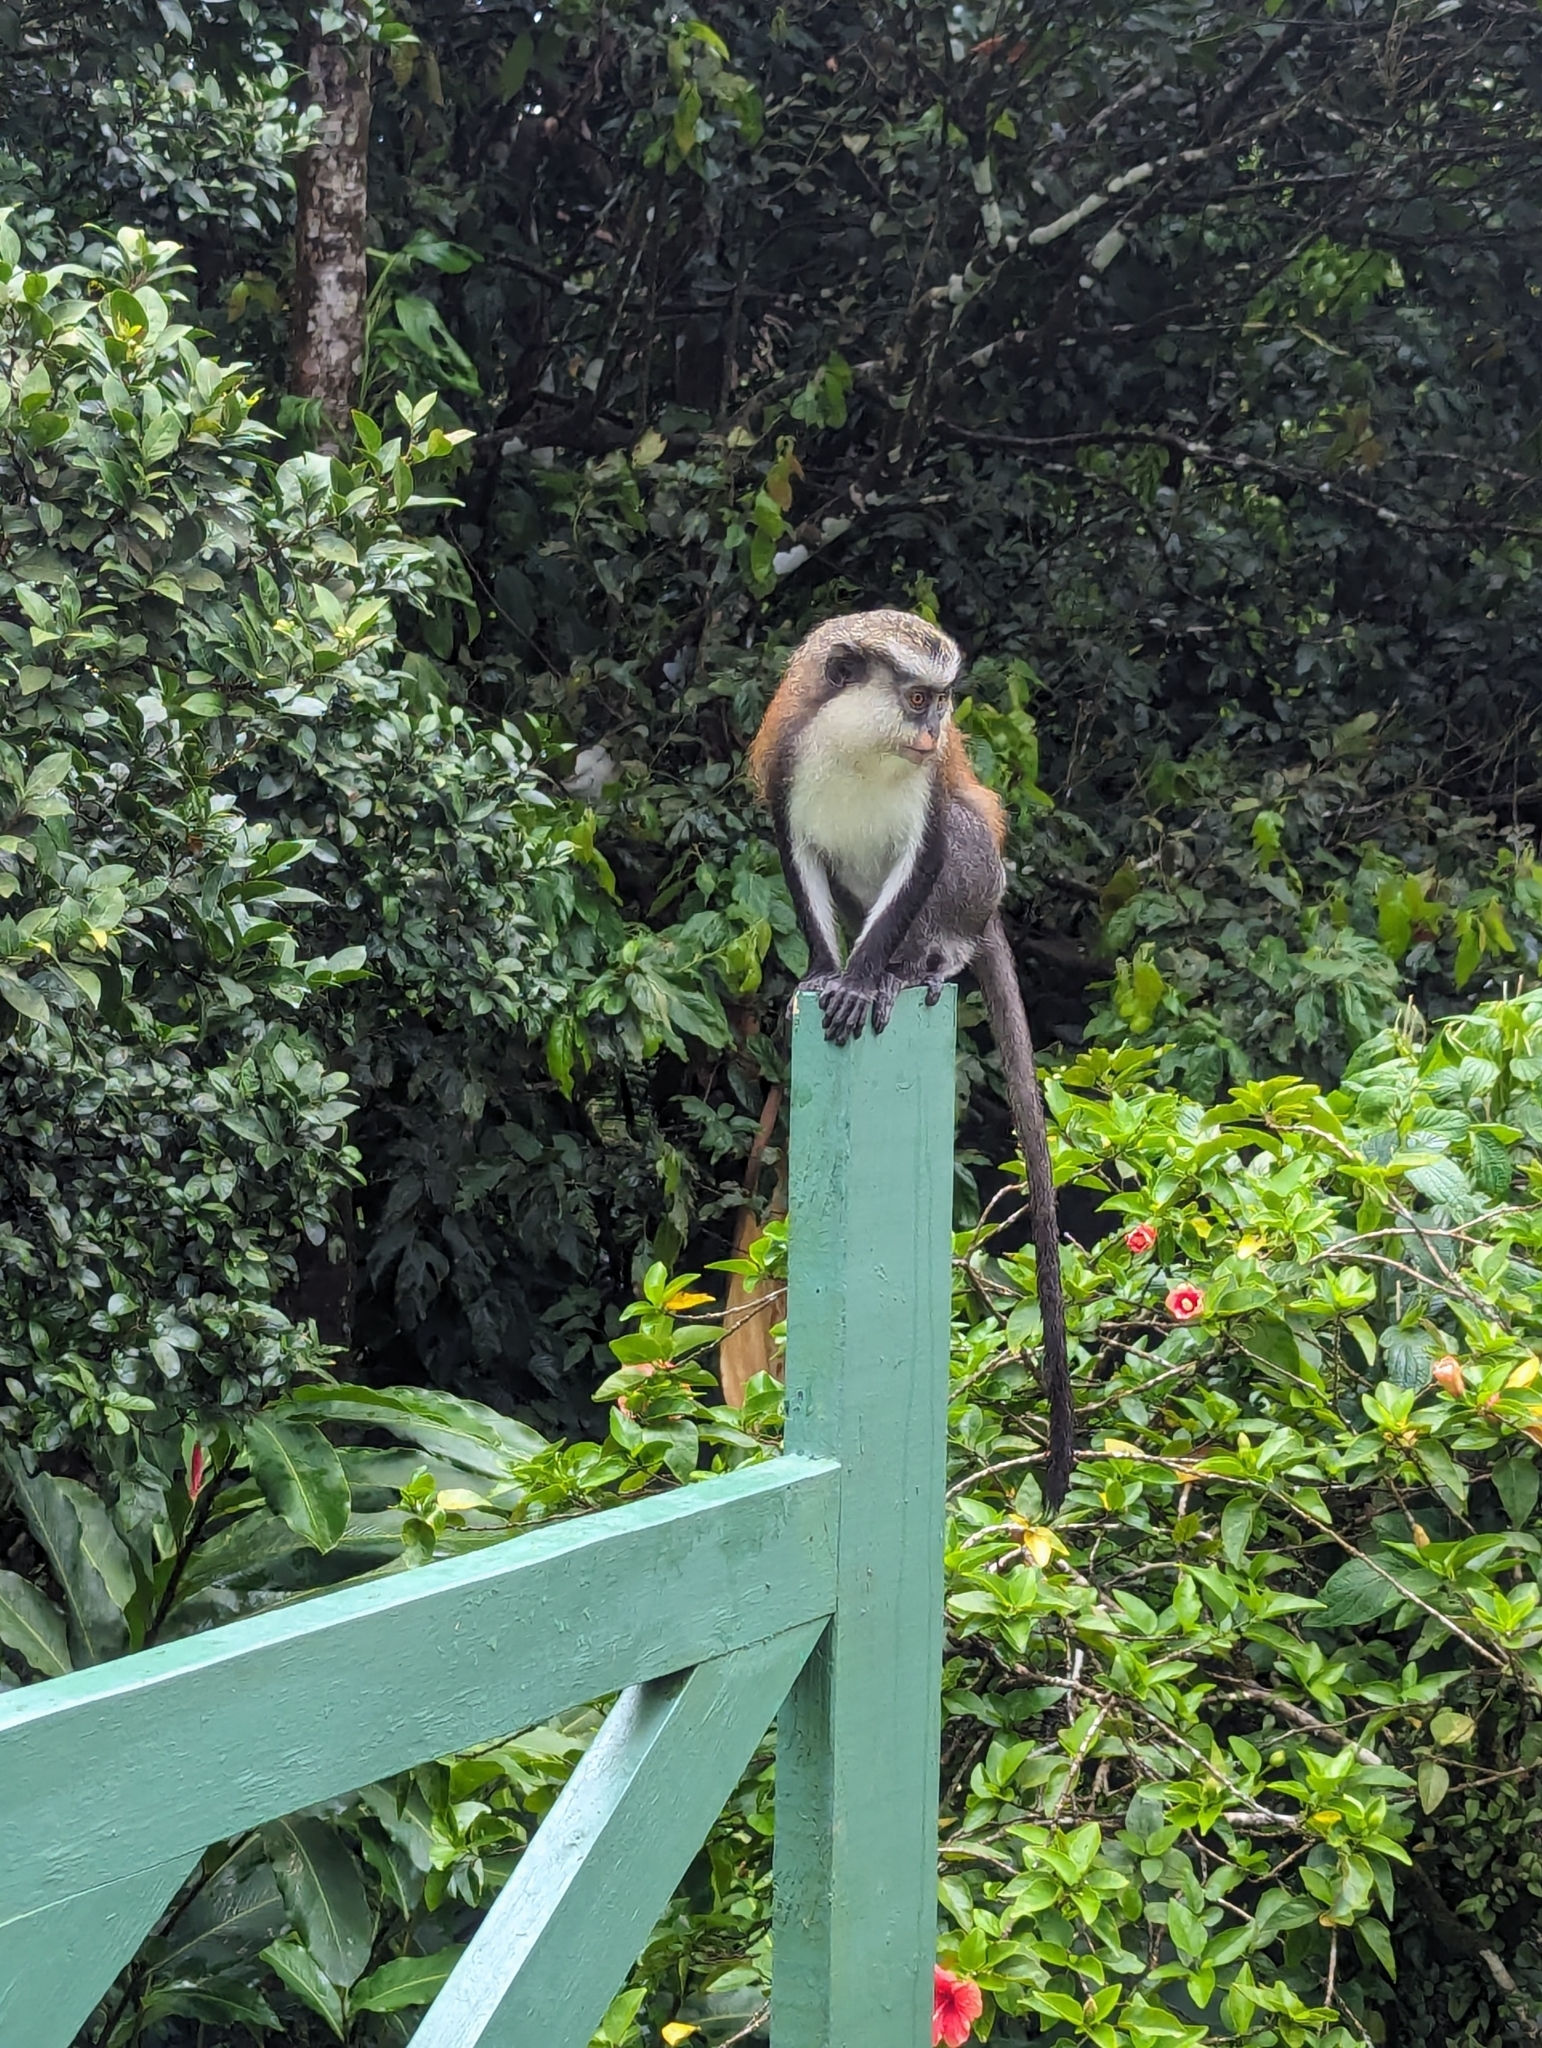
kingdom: Animalia
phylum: Chordata
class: Mammalia
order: Primates
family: Cercopithecidae
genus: Cercopithecus
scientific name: Cercopithecus mona
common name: Mona monkey
